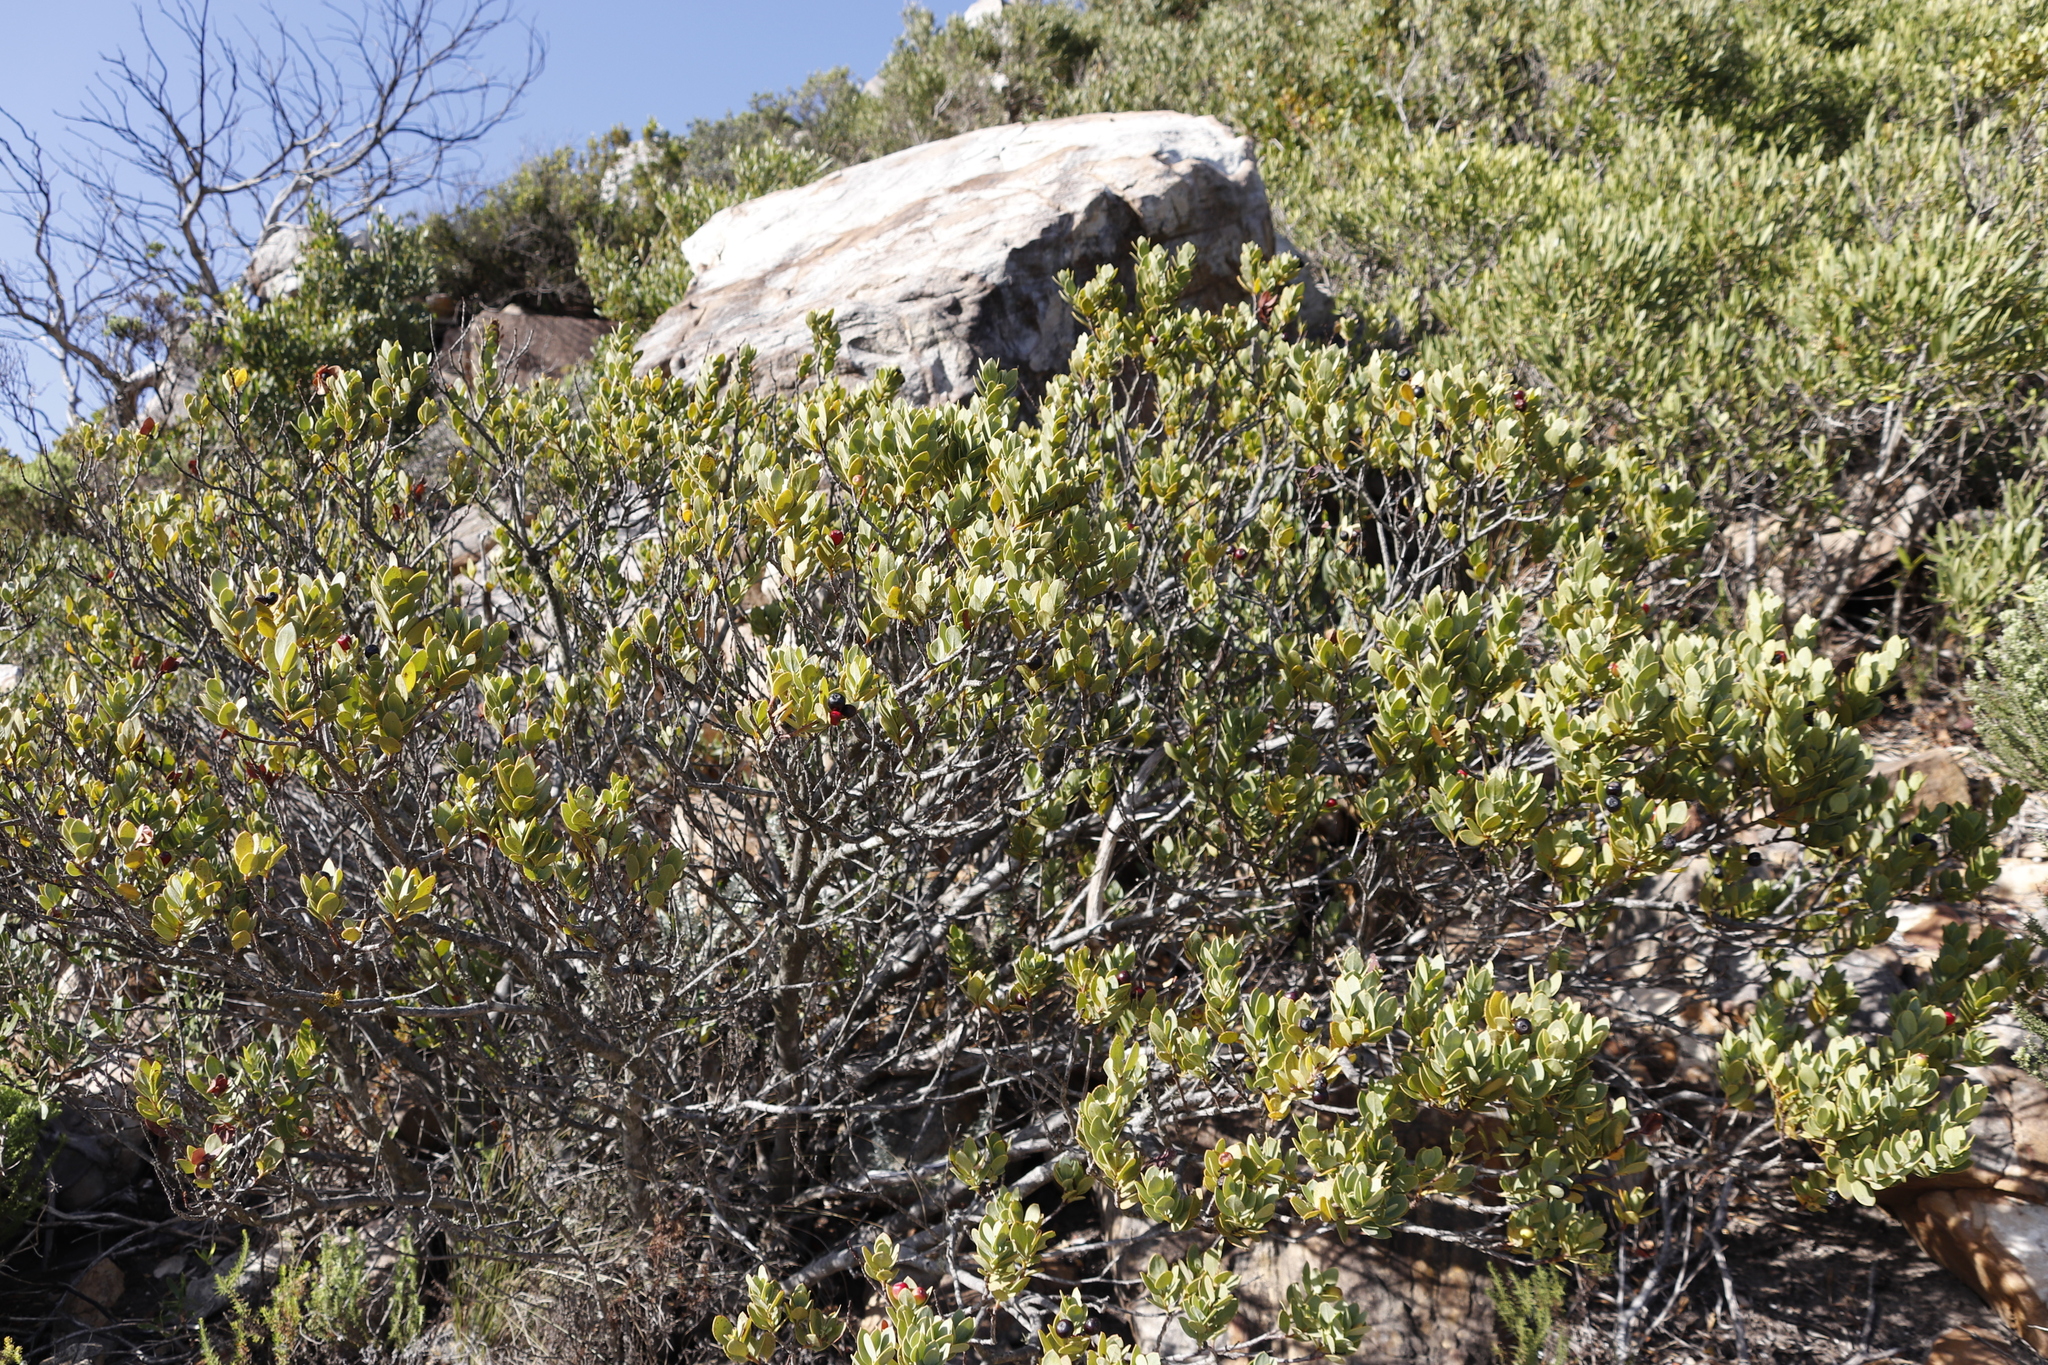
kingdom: Plantae
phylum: Tracheophyta
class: Magnoliopsida
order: Santalales
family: Santalaceae
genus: Osyris
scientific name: Osyris compressa
